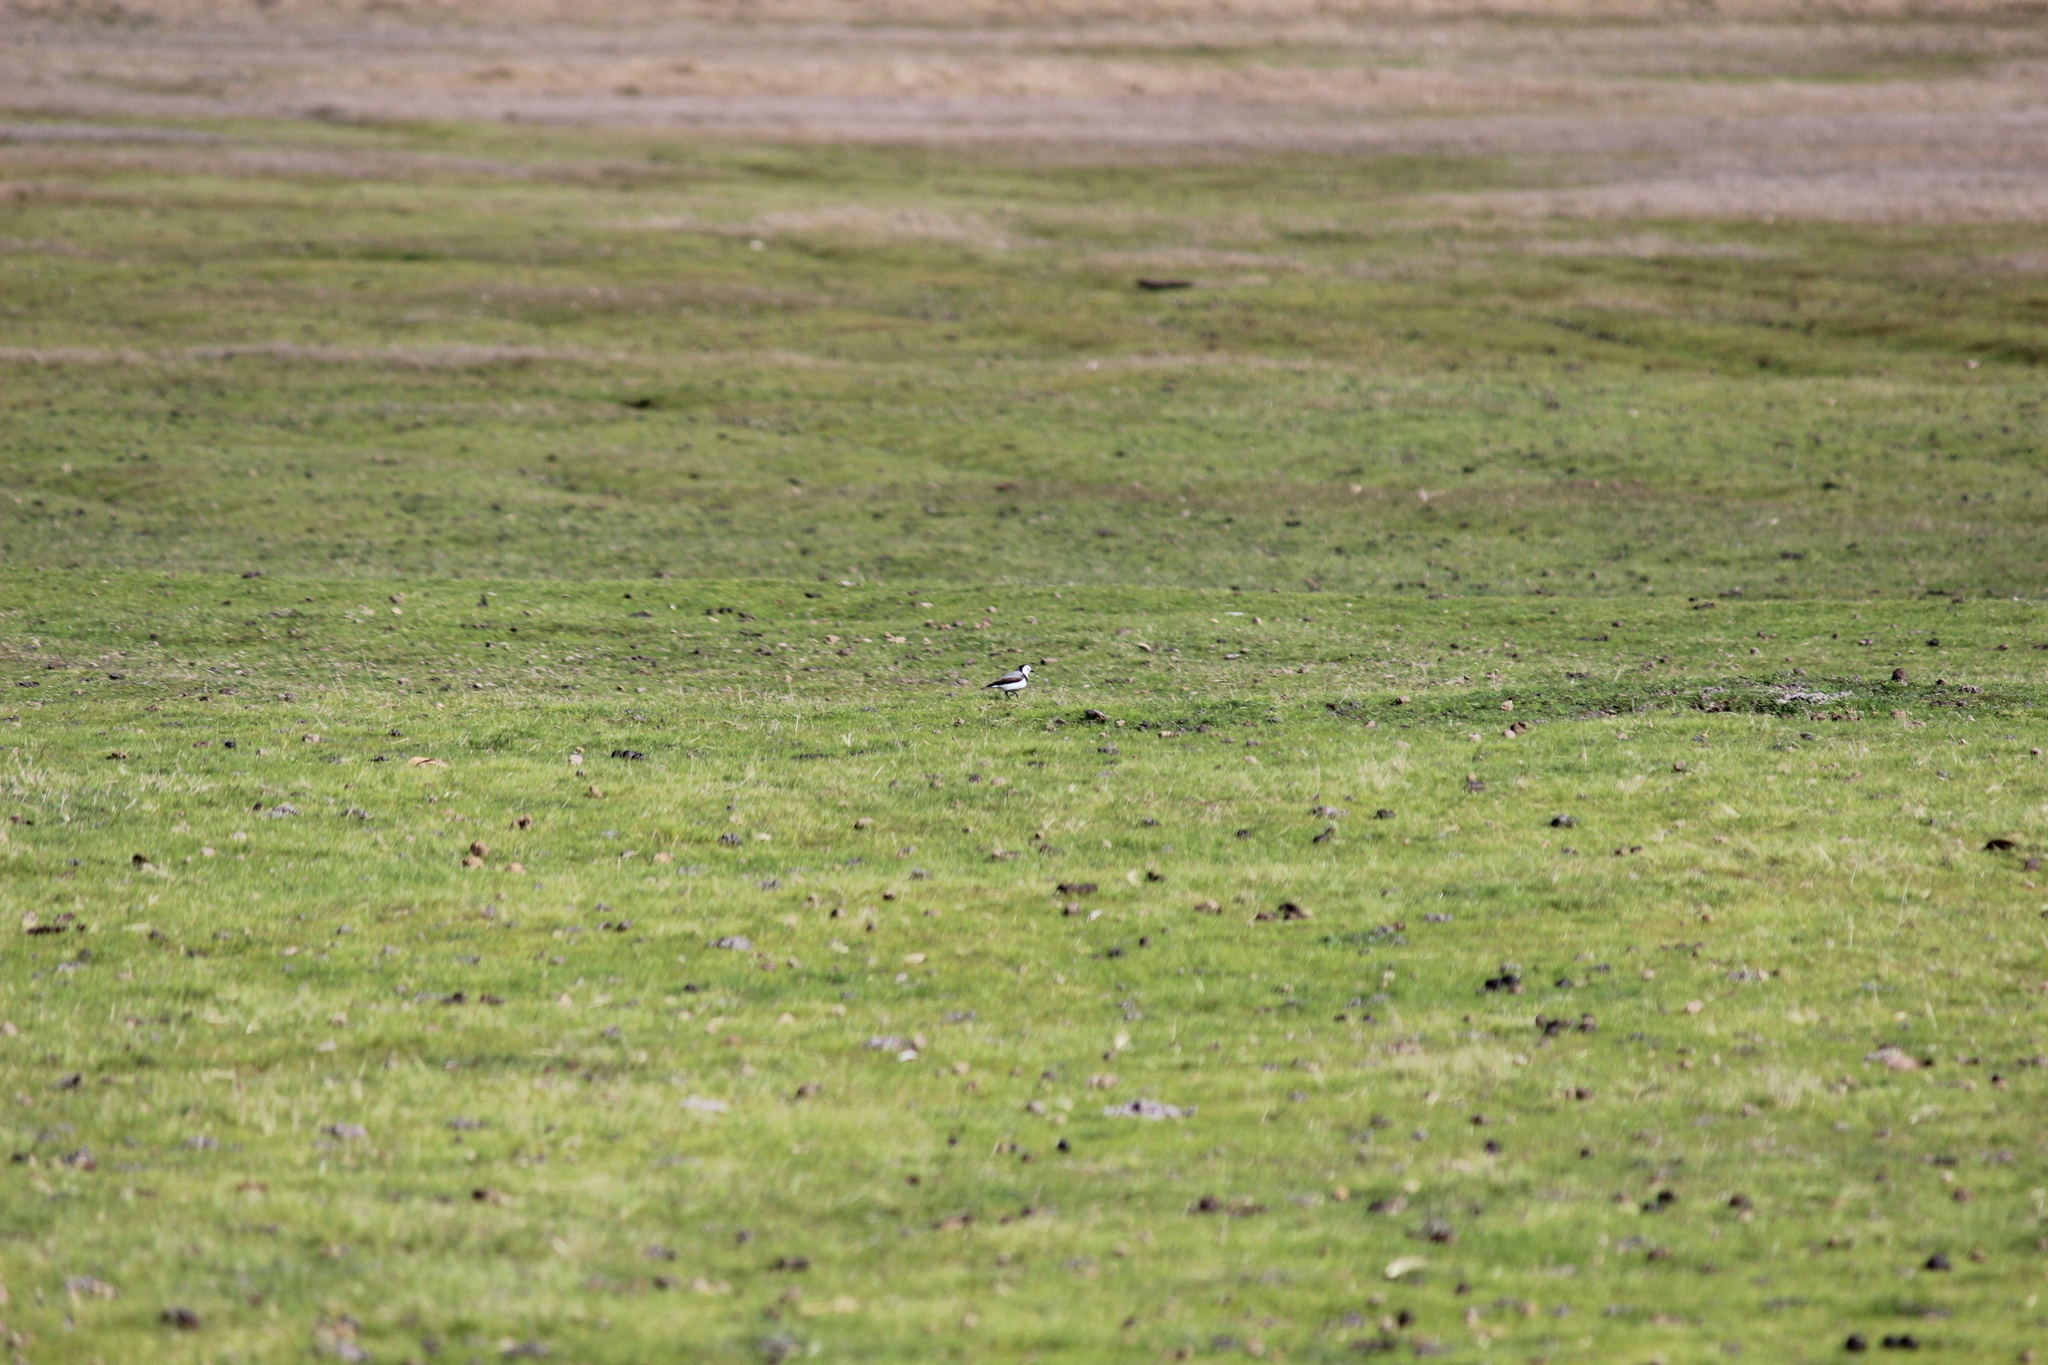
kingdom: Animalia
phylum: Chordata
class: Aves
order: Passeriformes
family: Meliphagidae
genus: Epthianura
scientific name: Epthianura albifrons
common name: White-fronted chat
